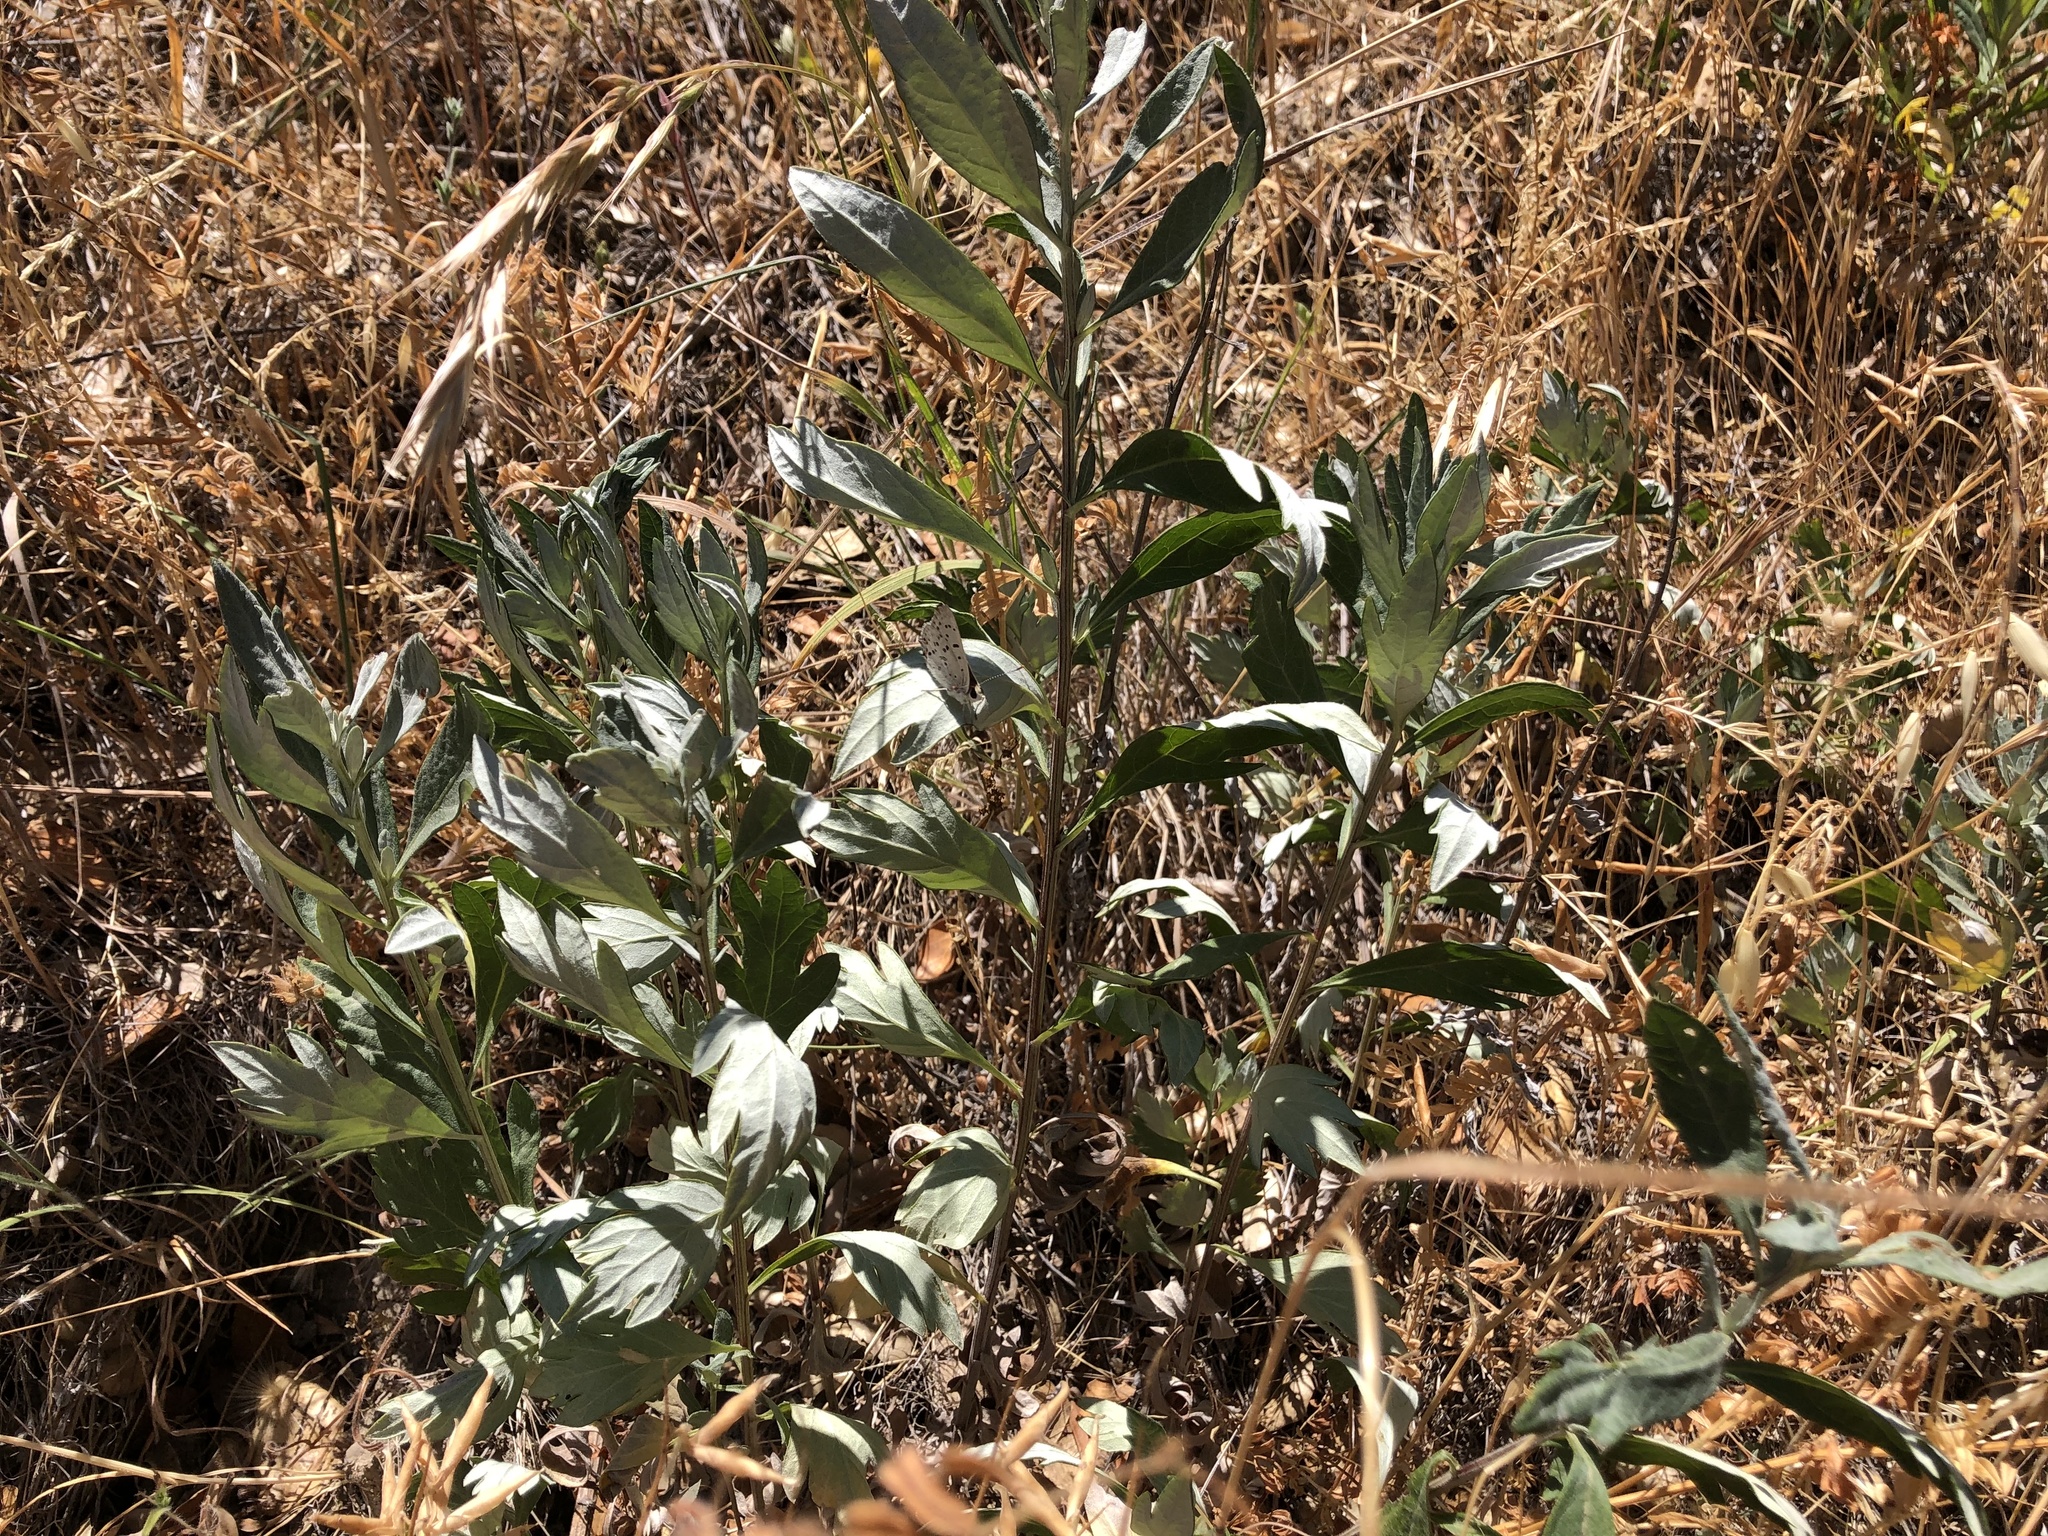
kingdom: Plantae
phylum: Tracheophyta
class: Magnoliopsida
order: Asterales
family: Asteraceae
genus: Artemisia
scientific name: Artemisia douglasiana
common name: Northwest mugwort
